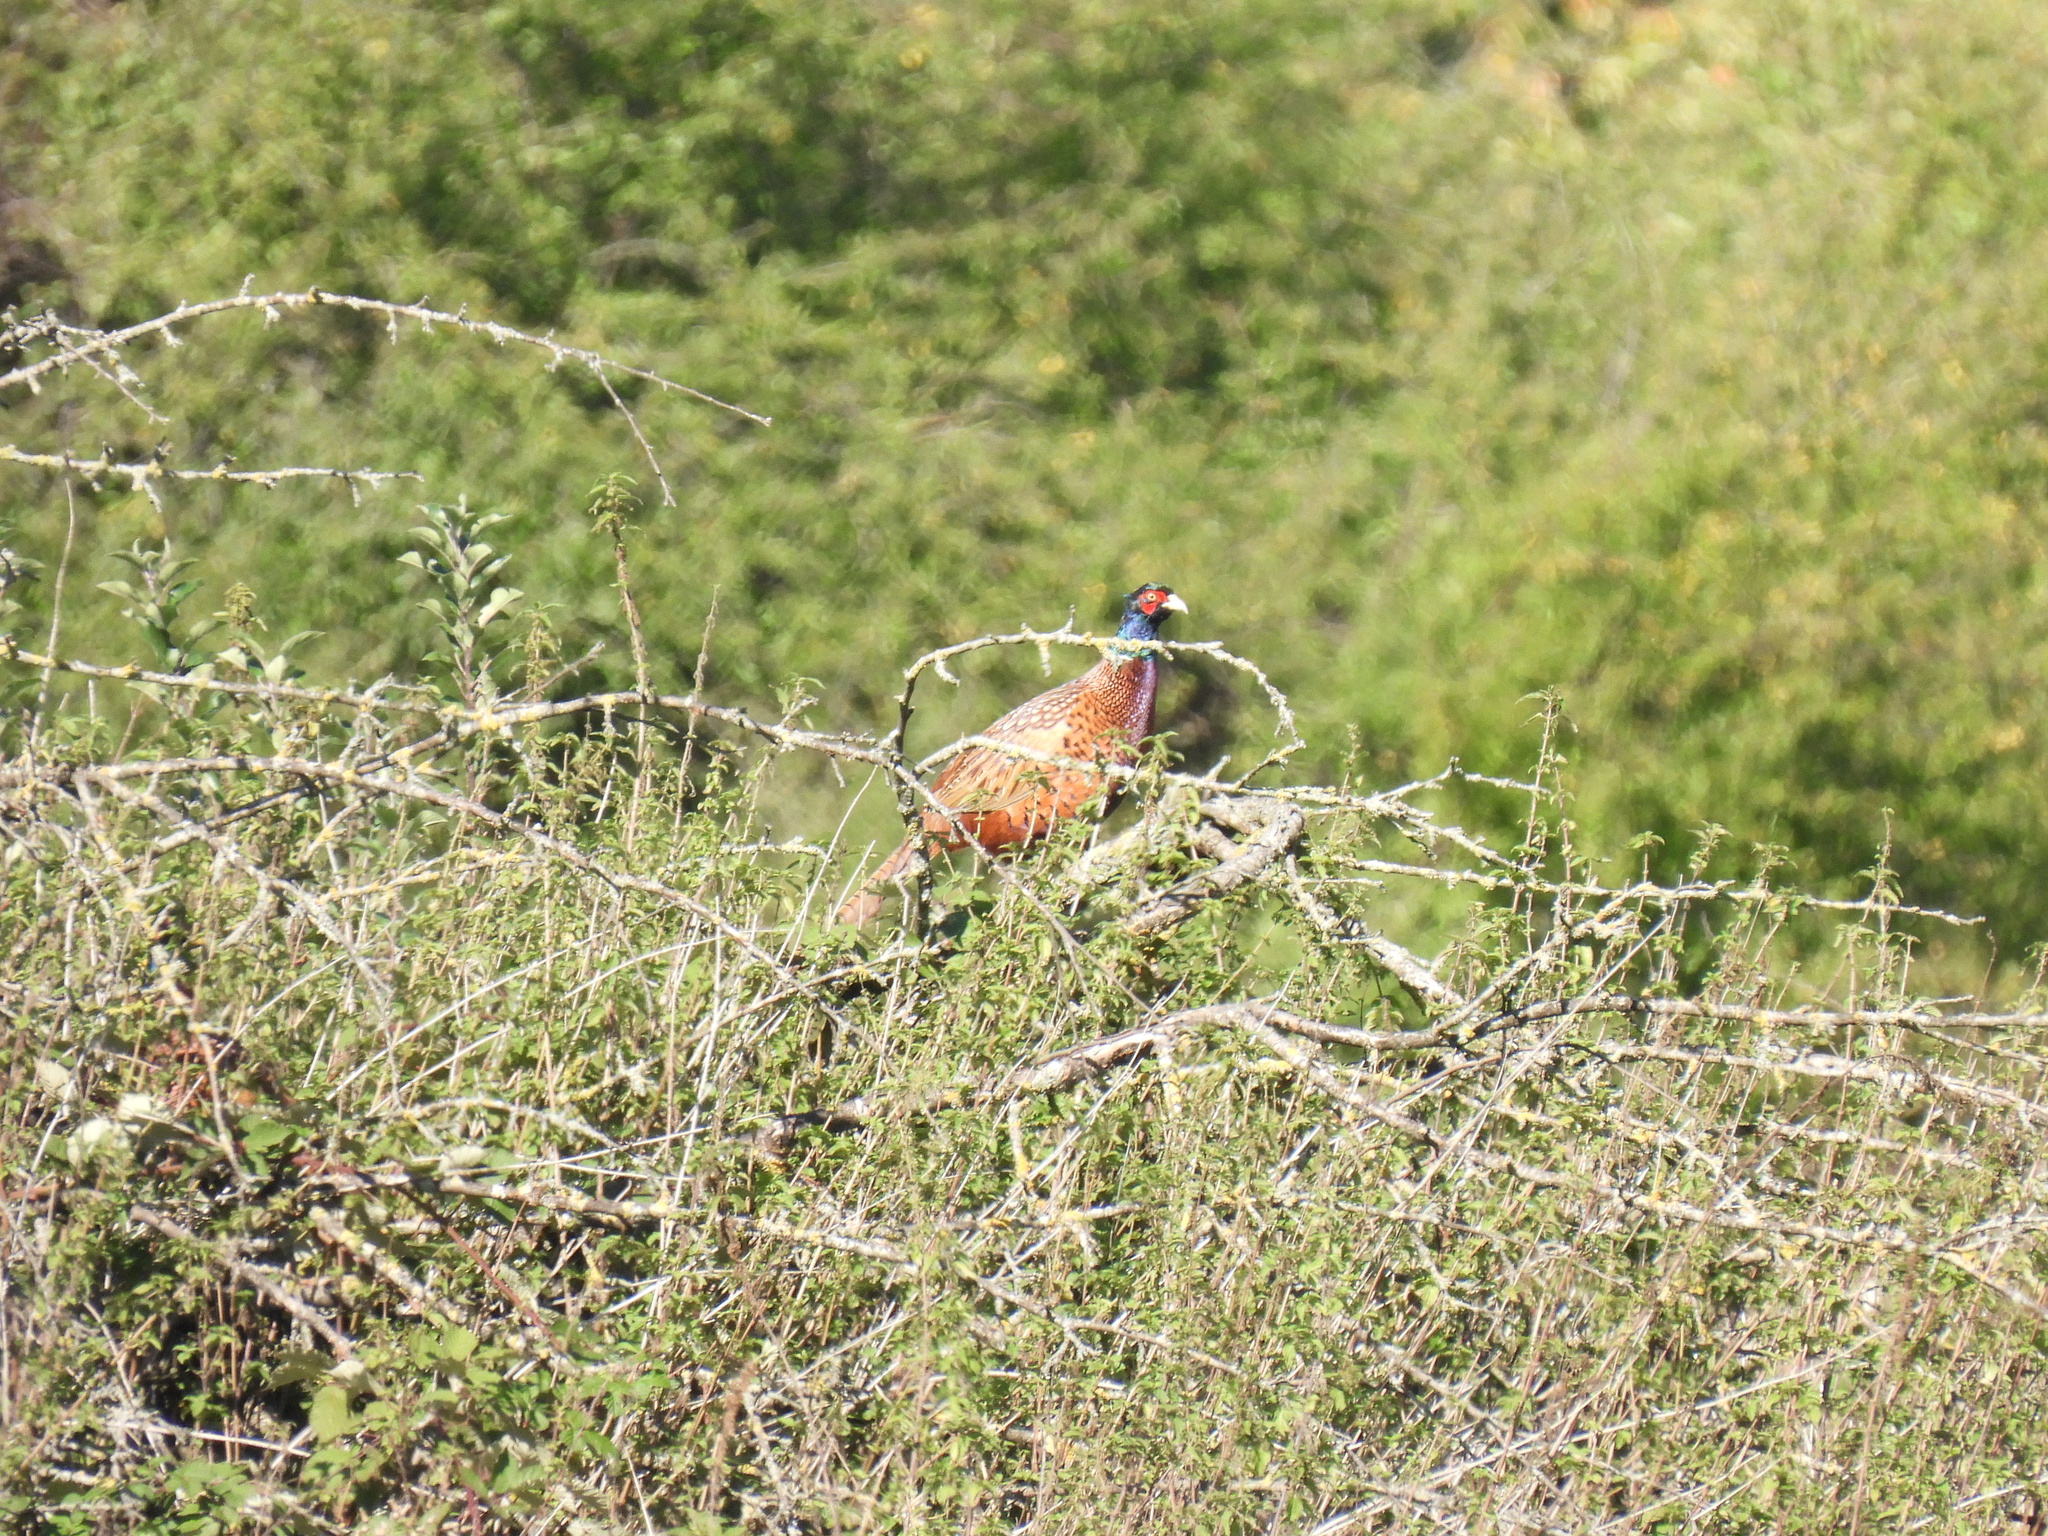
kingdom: Animalia
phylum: Chordata
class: Aves
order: Galliformes
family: Phasianidae
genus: Phasianus
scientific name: Phasianus colchicus
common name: Common pheasant
